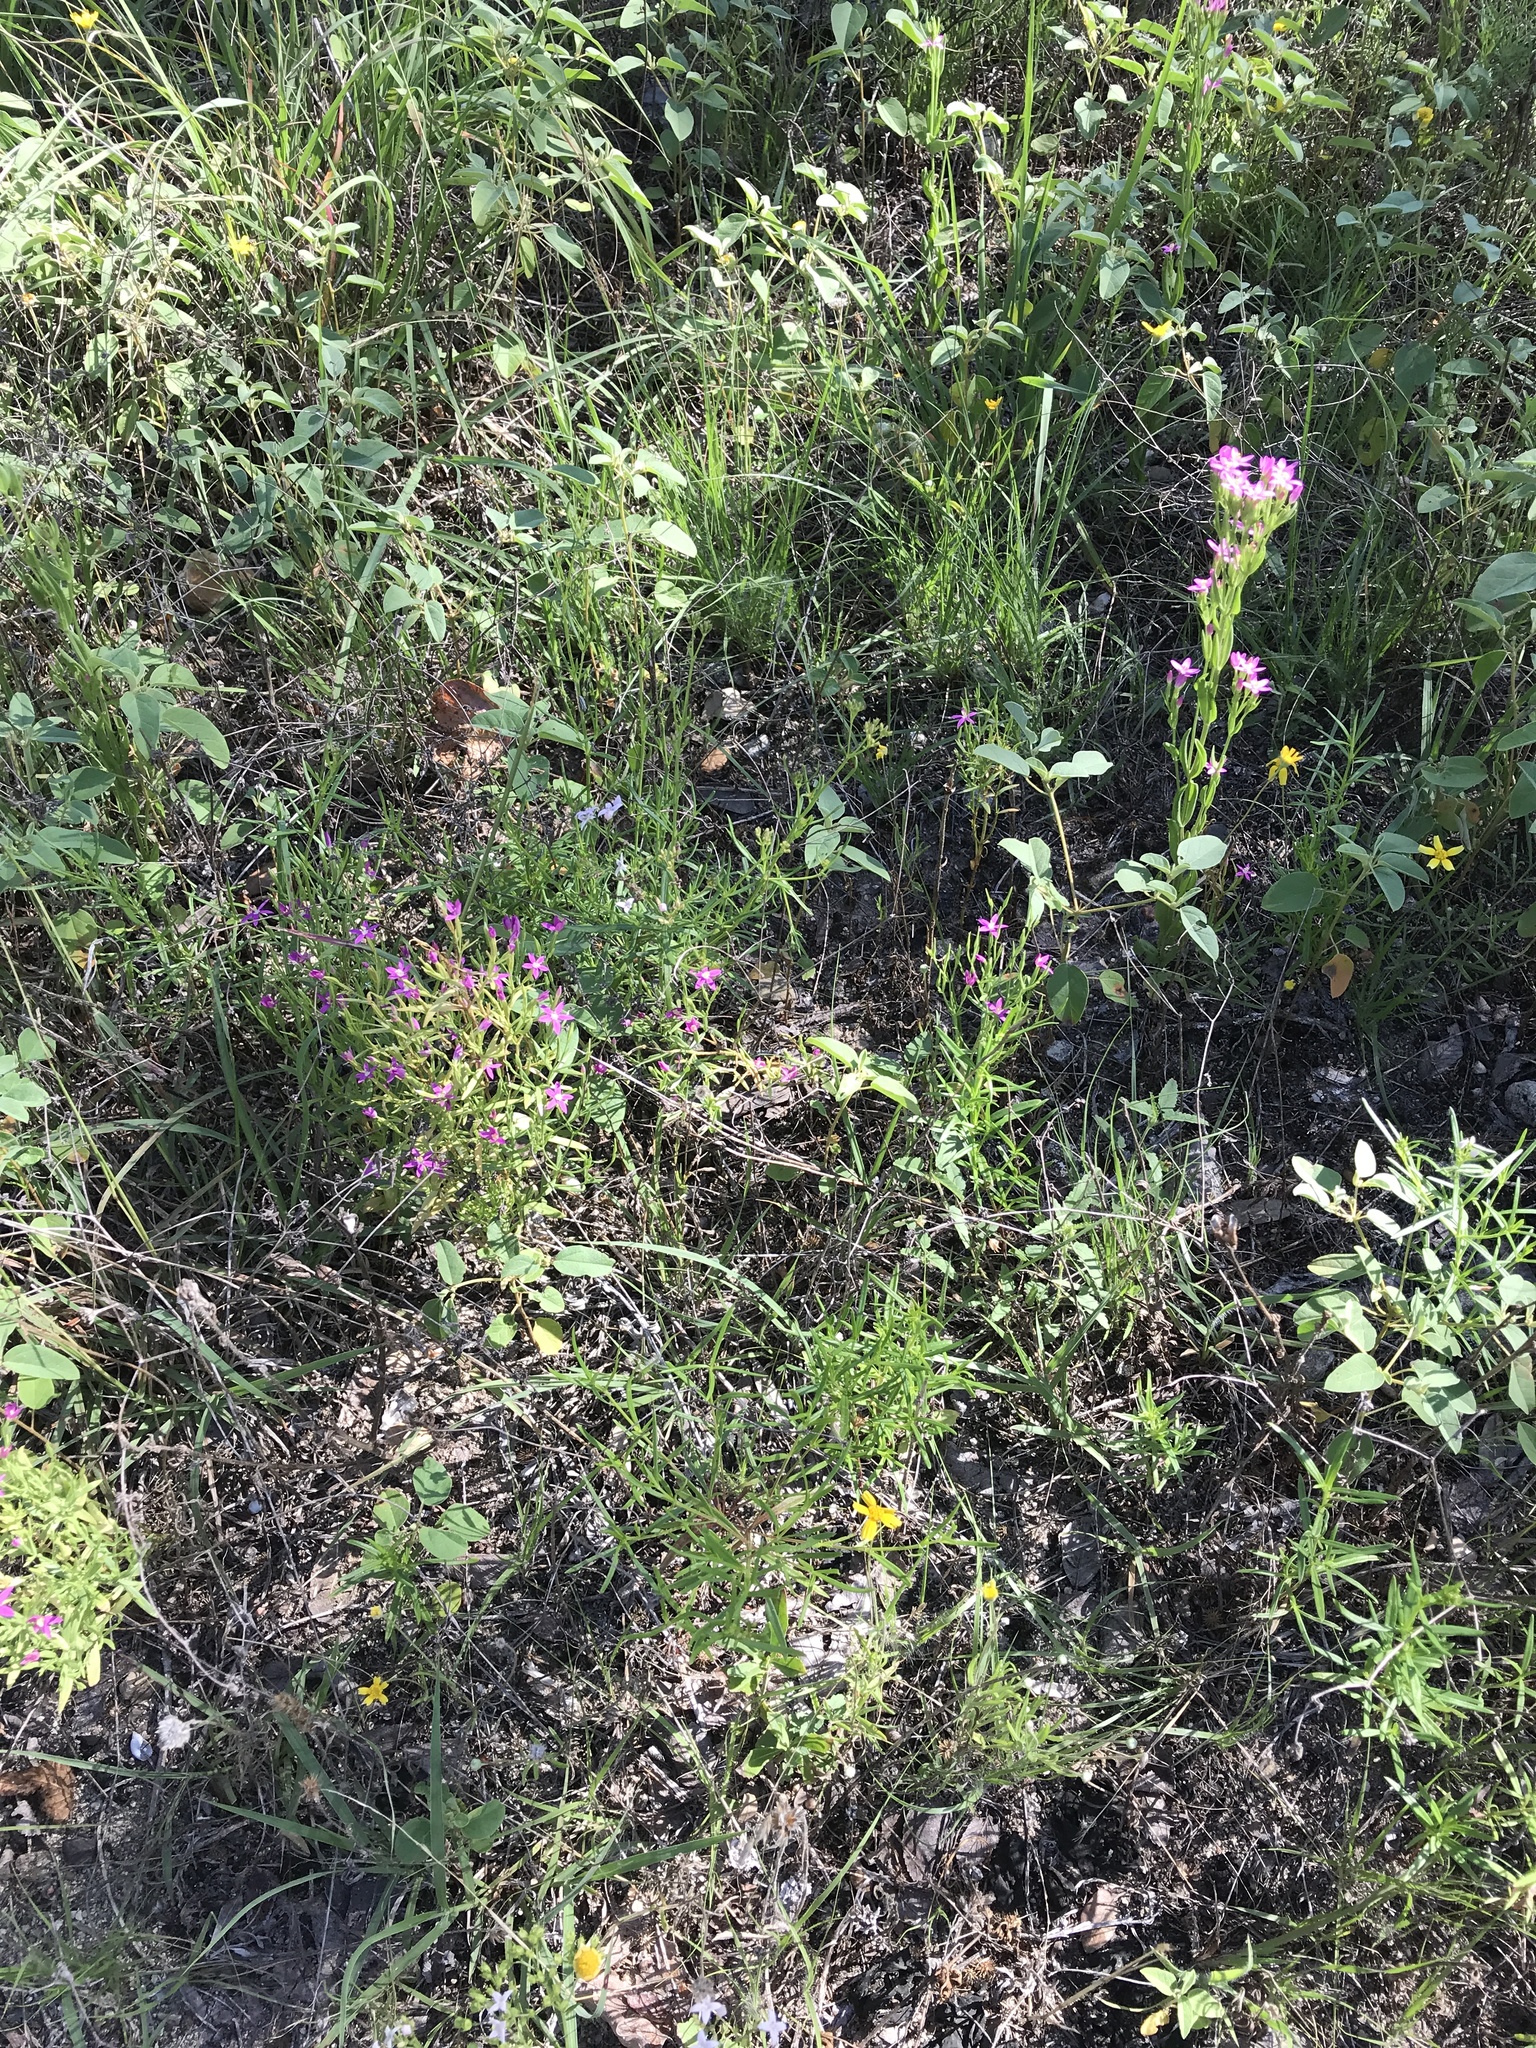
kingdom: Plantae
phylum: Tracheophyta
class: Magnoliopsida
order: Gentianales
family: Gentianaceae
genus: Zeltnera
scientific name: Zeltnera texensis
